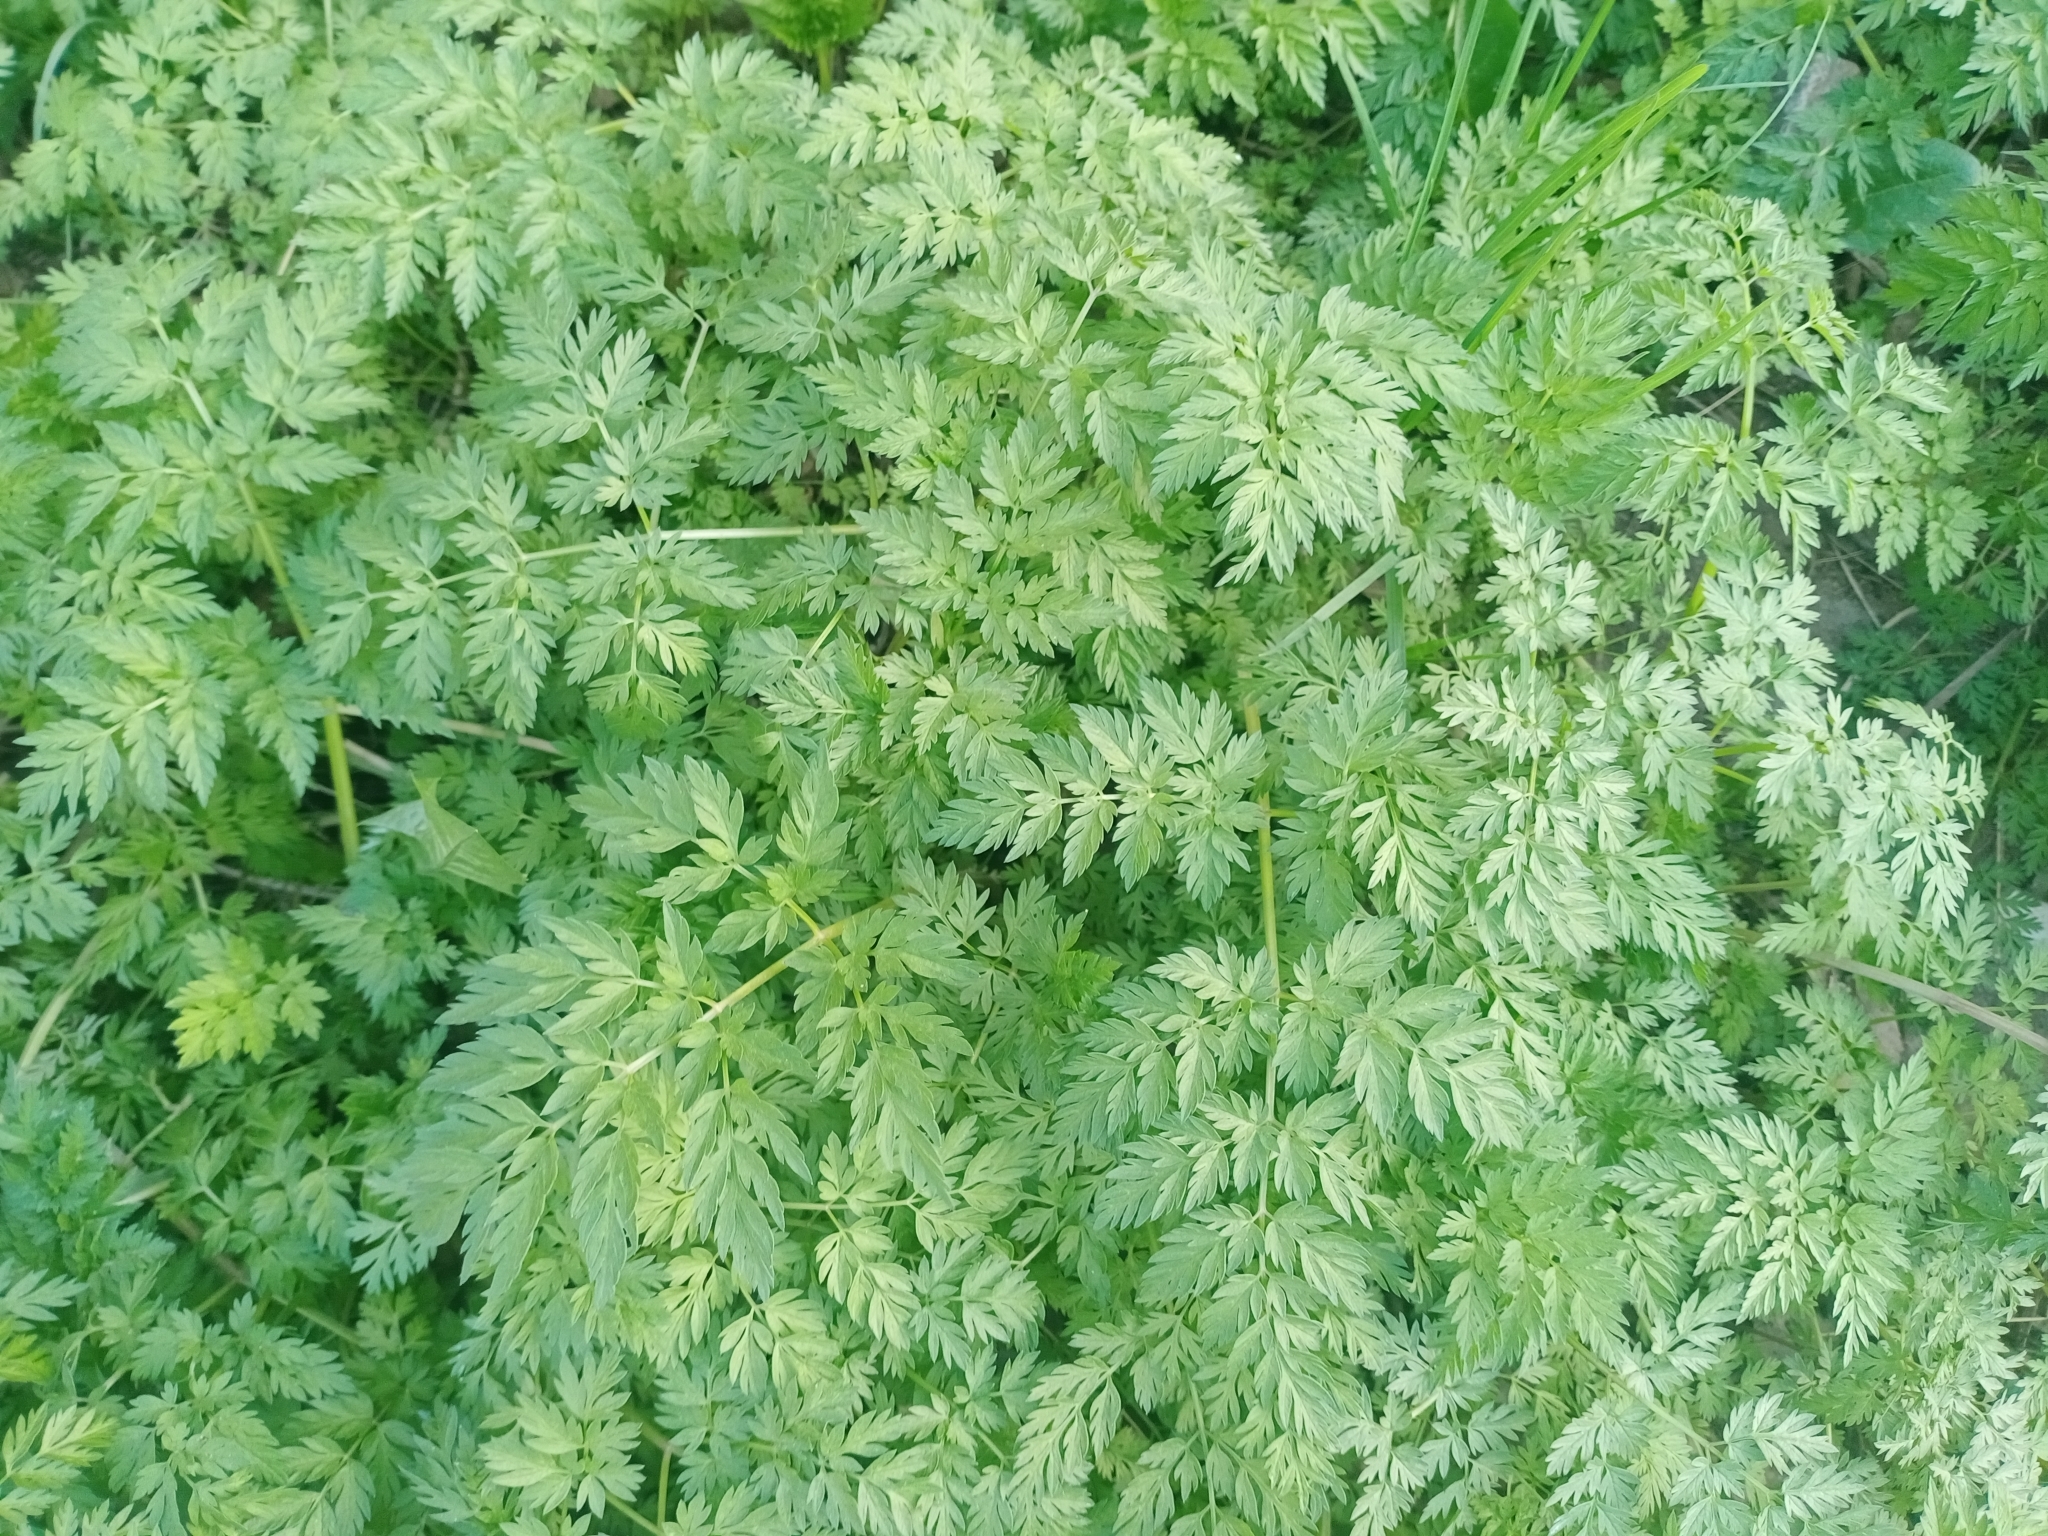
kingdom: Plantae
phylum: Tracheophyta
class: Magnoliopsida
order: Apiales
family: Apiaceae
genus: Anthriscus
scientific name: Anthriscus sylvestris
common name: Cow parsley
